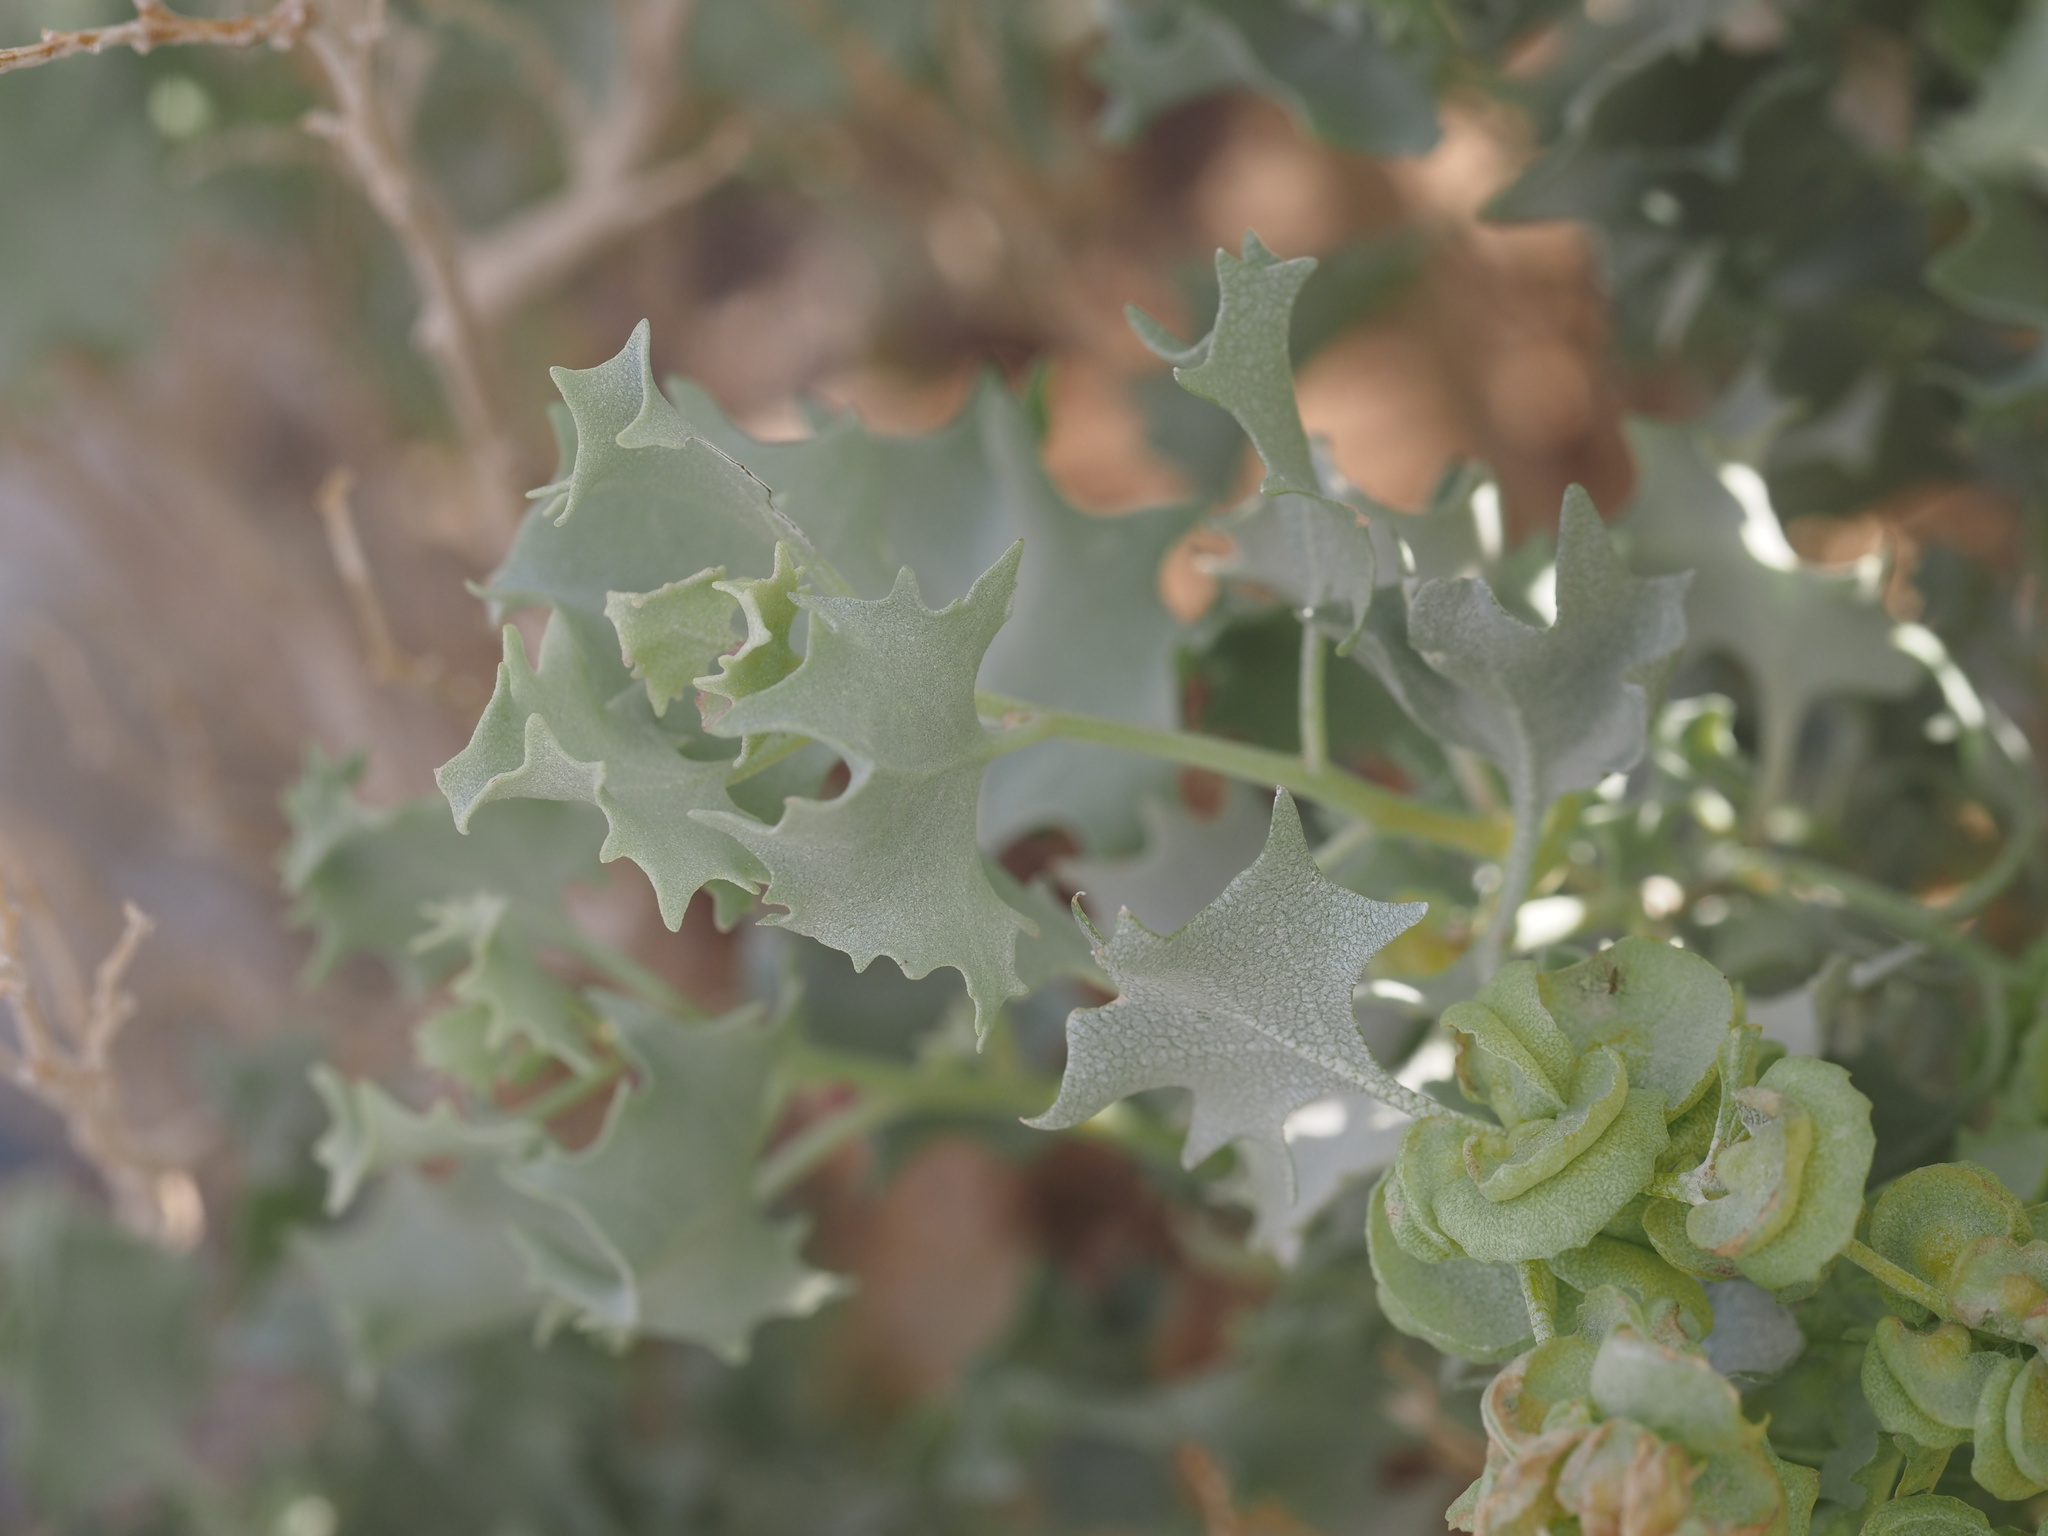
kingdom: Plantae
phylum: Tracheophyta
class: Magnoliopsida
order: Caryophyllales
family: Amaranthaceae
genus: Atriplex
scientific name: Atriplex hymenelytra
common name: Desert-holly
